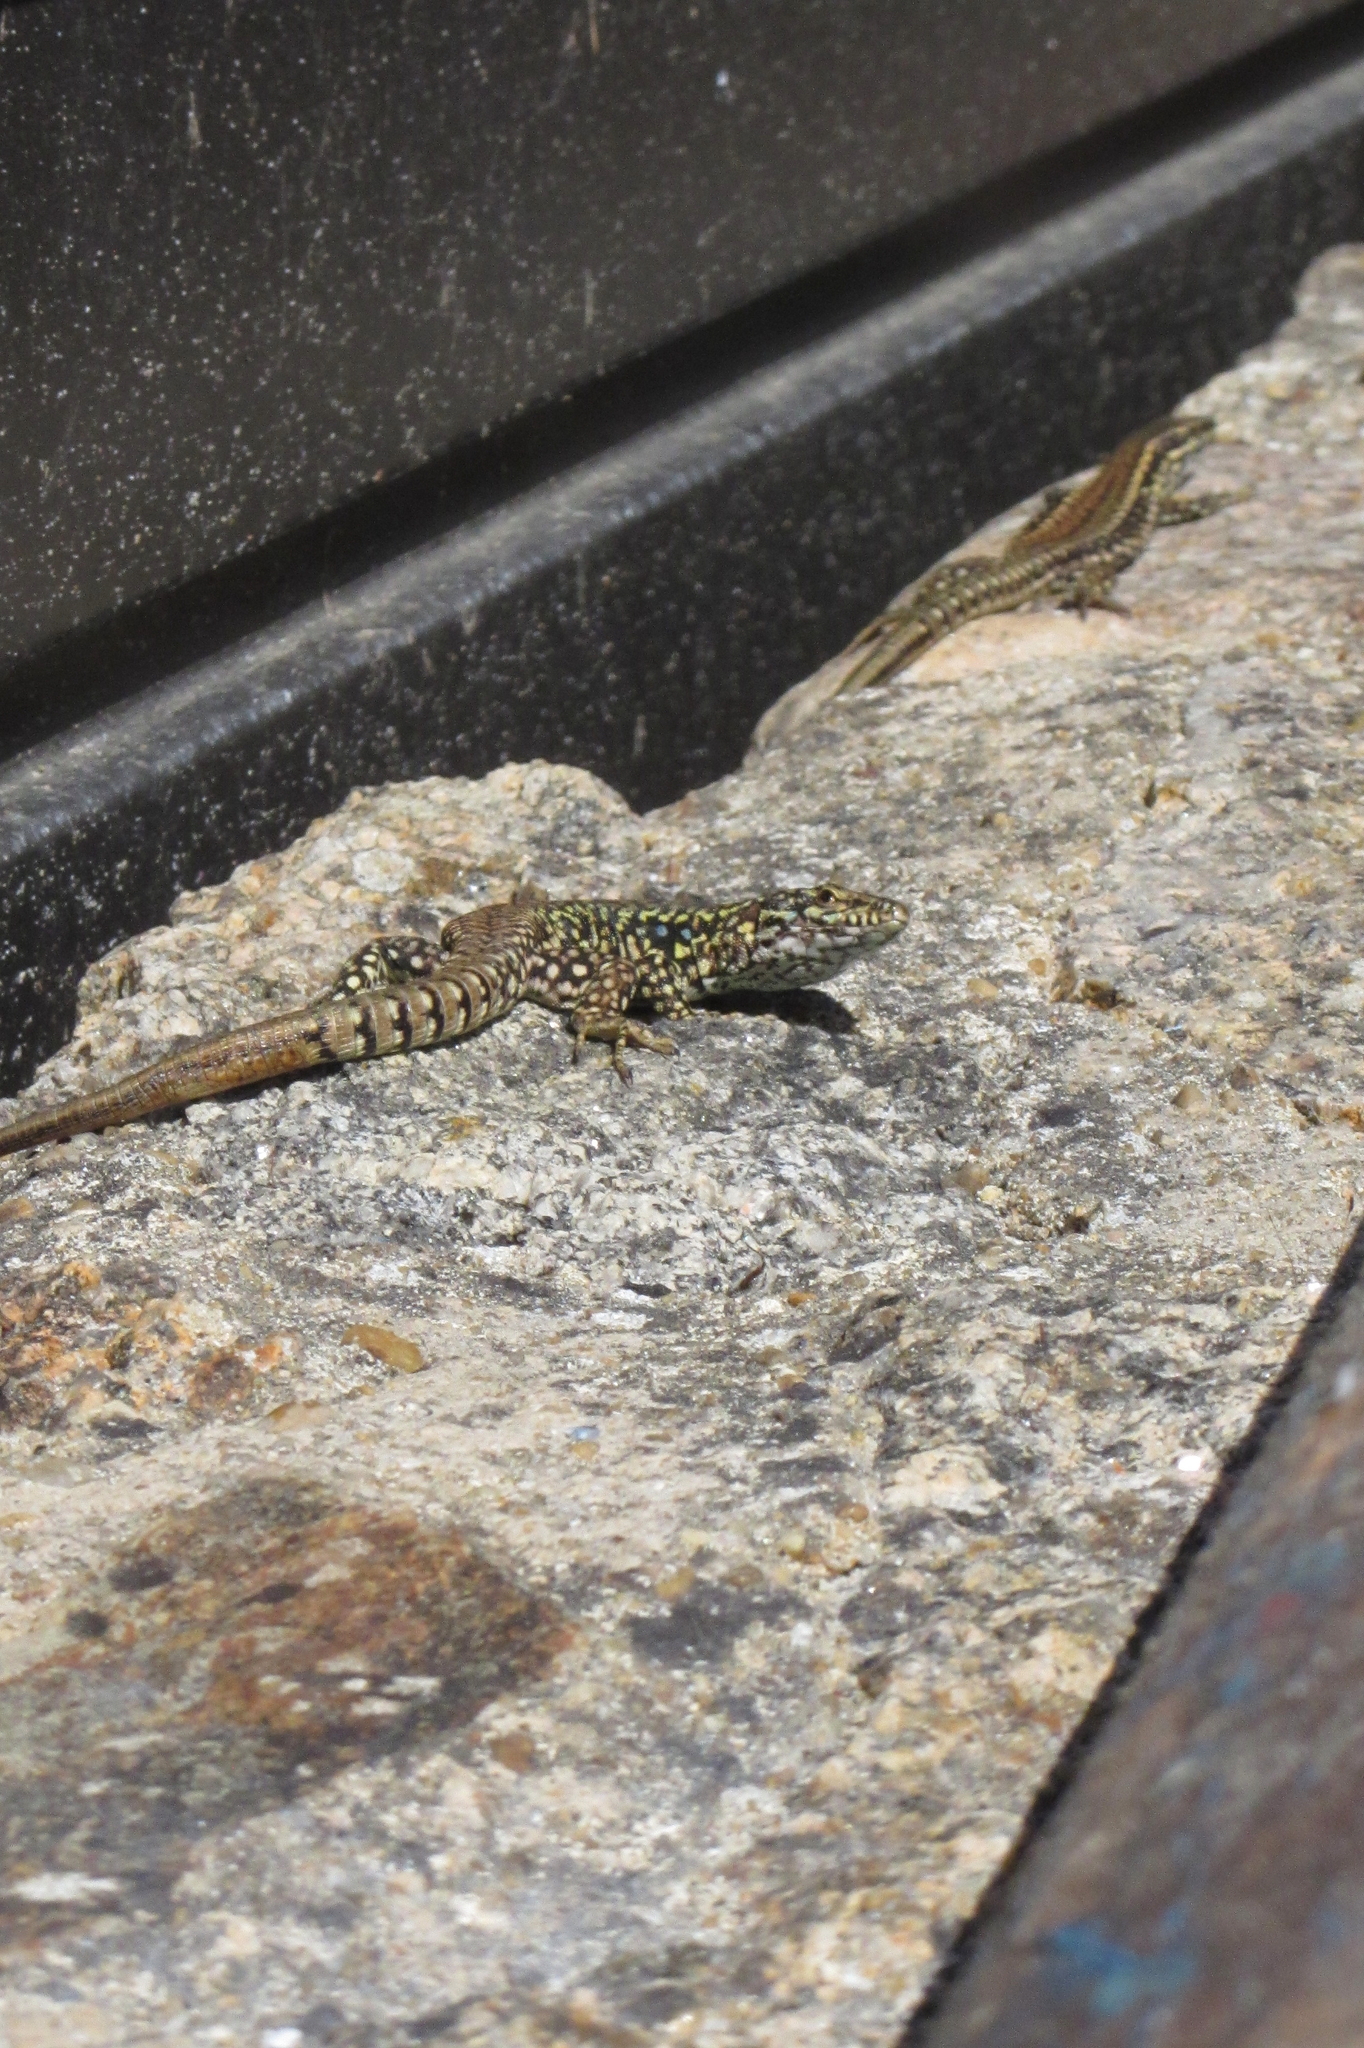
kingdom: Animalia
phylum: Chordata
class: Squamata
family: Lacertidae
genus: Podarcis
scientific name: Podarcis muralis
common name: Common wall lizard
